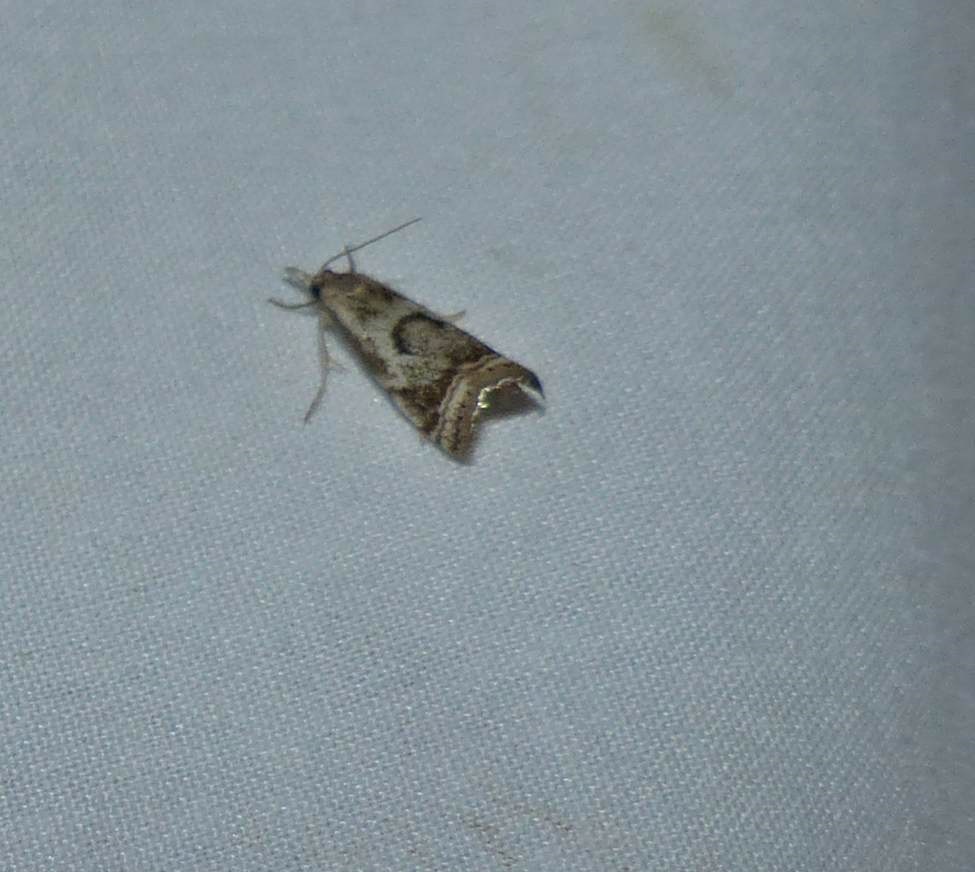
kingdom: Animalia
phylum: Arthropoda
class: Insecta
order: Lepidoptera
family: Crambidae
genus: Microcrambus
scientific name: Microcrambus elegans
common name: Elegant grass-veneer
